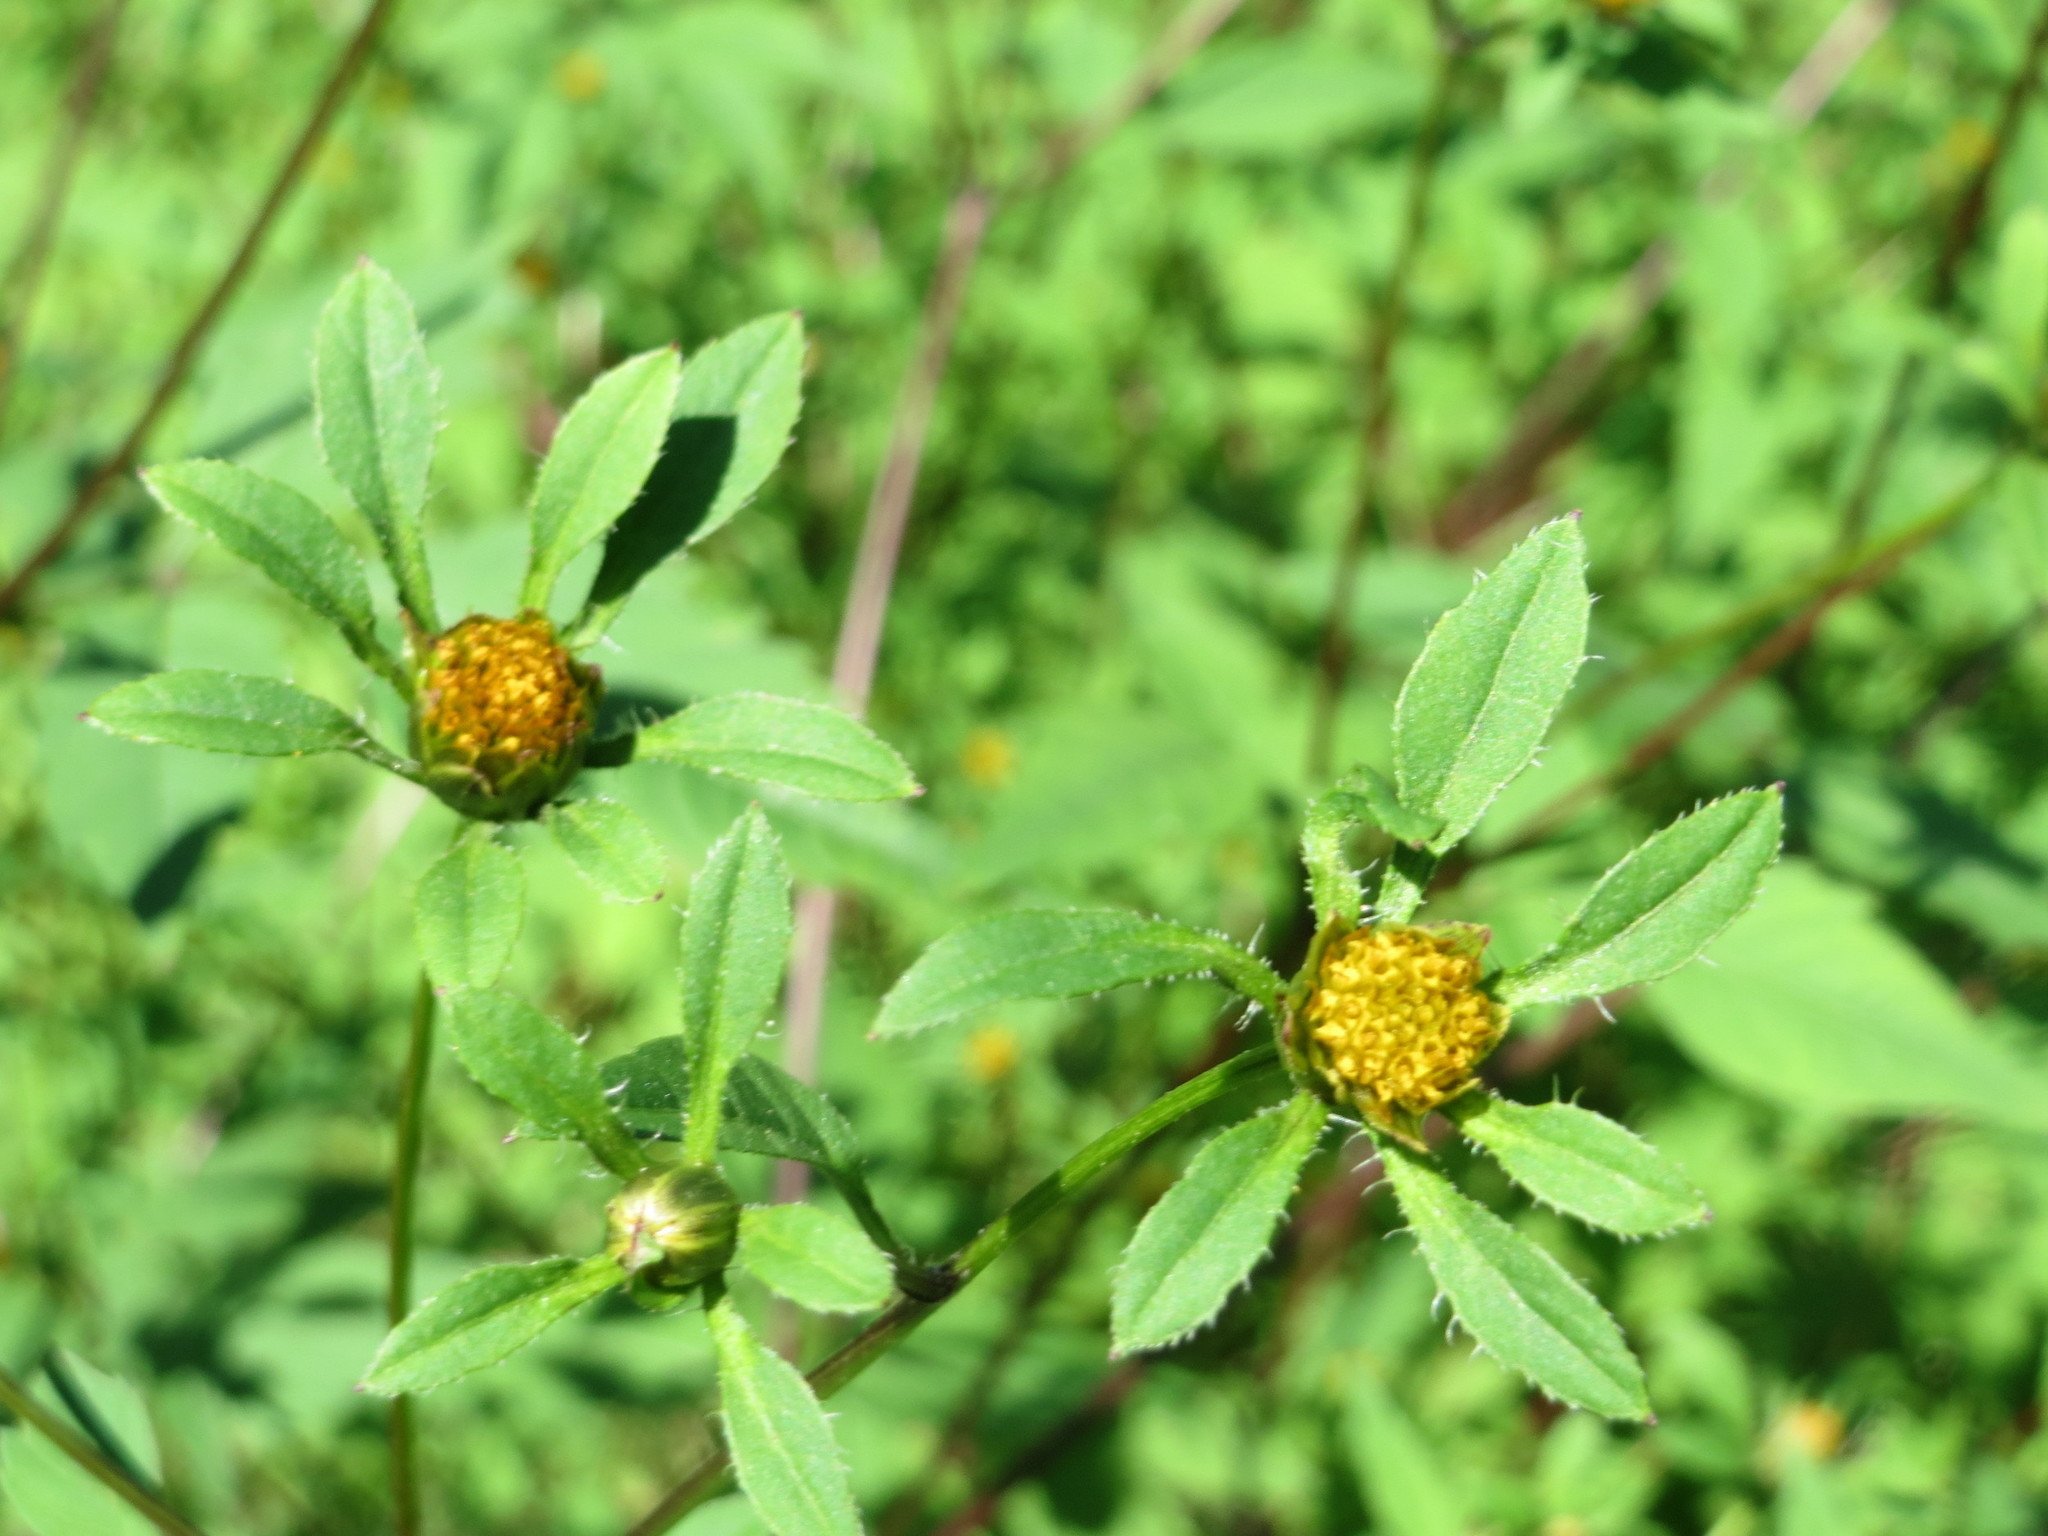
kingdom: Plantae
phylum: Tracheophyta
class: Magnoliopsida
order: Asterales
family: Asteraceae
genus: Bidens
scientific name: Bidens frondosa
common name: Beggarticks
